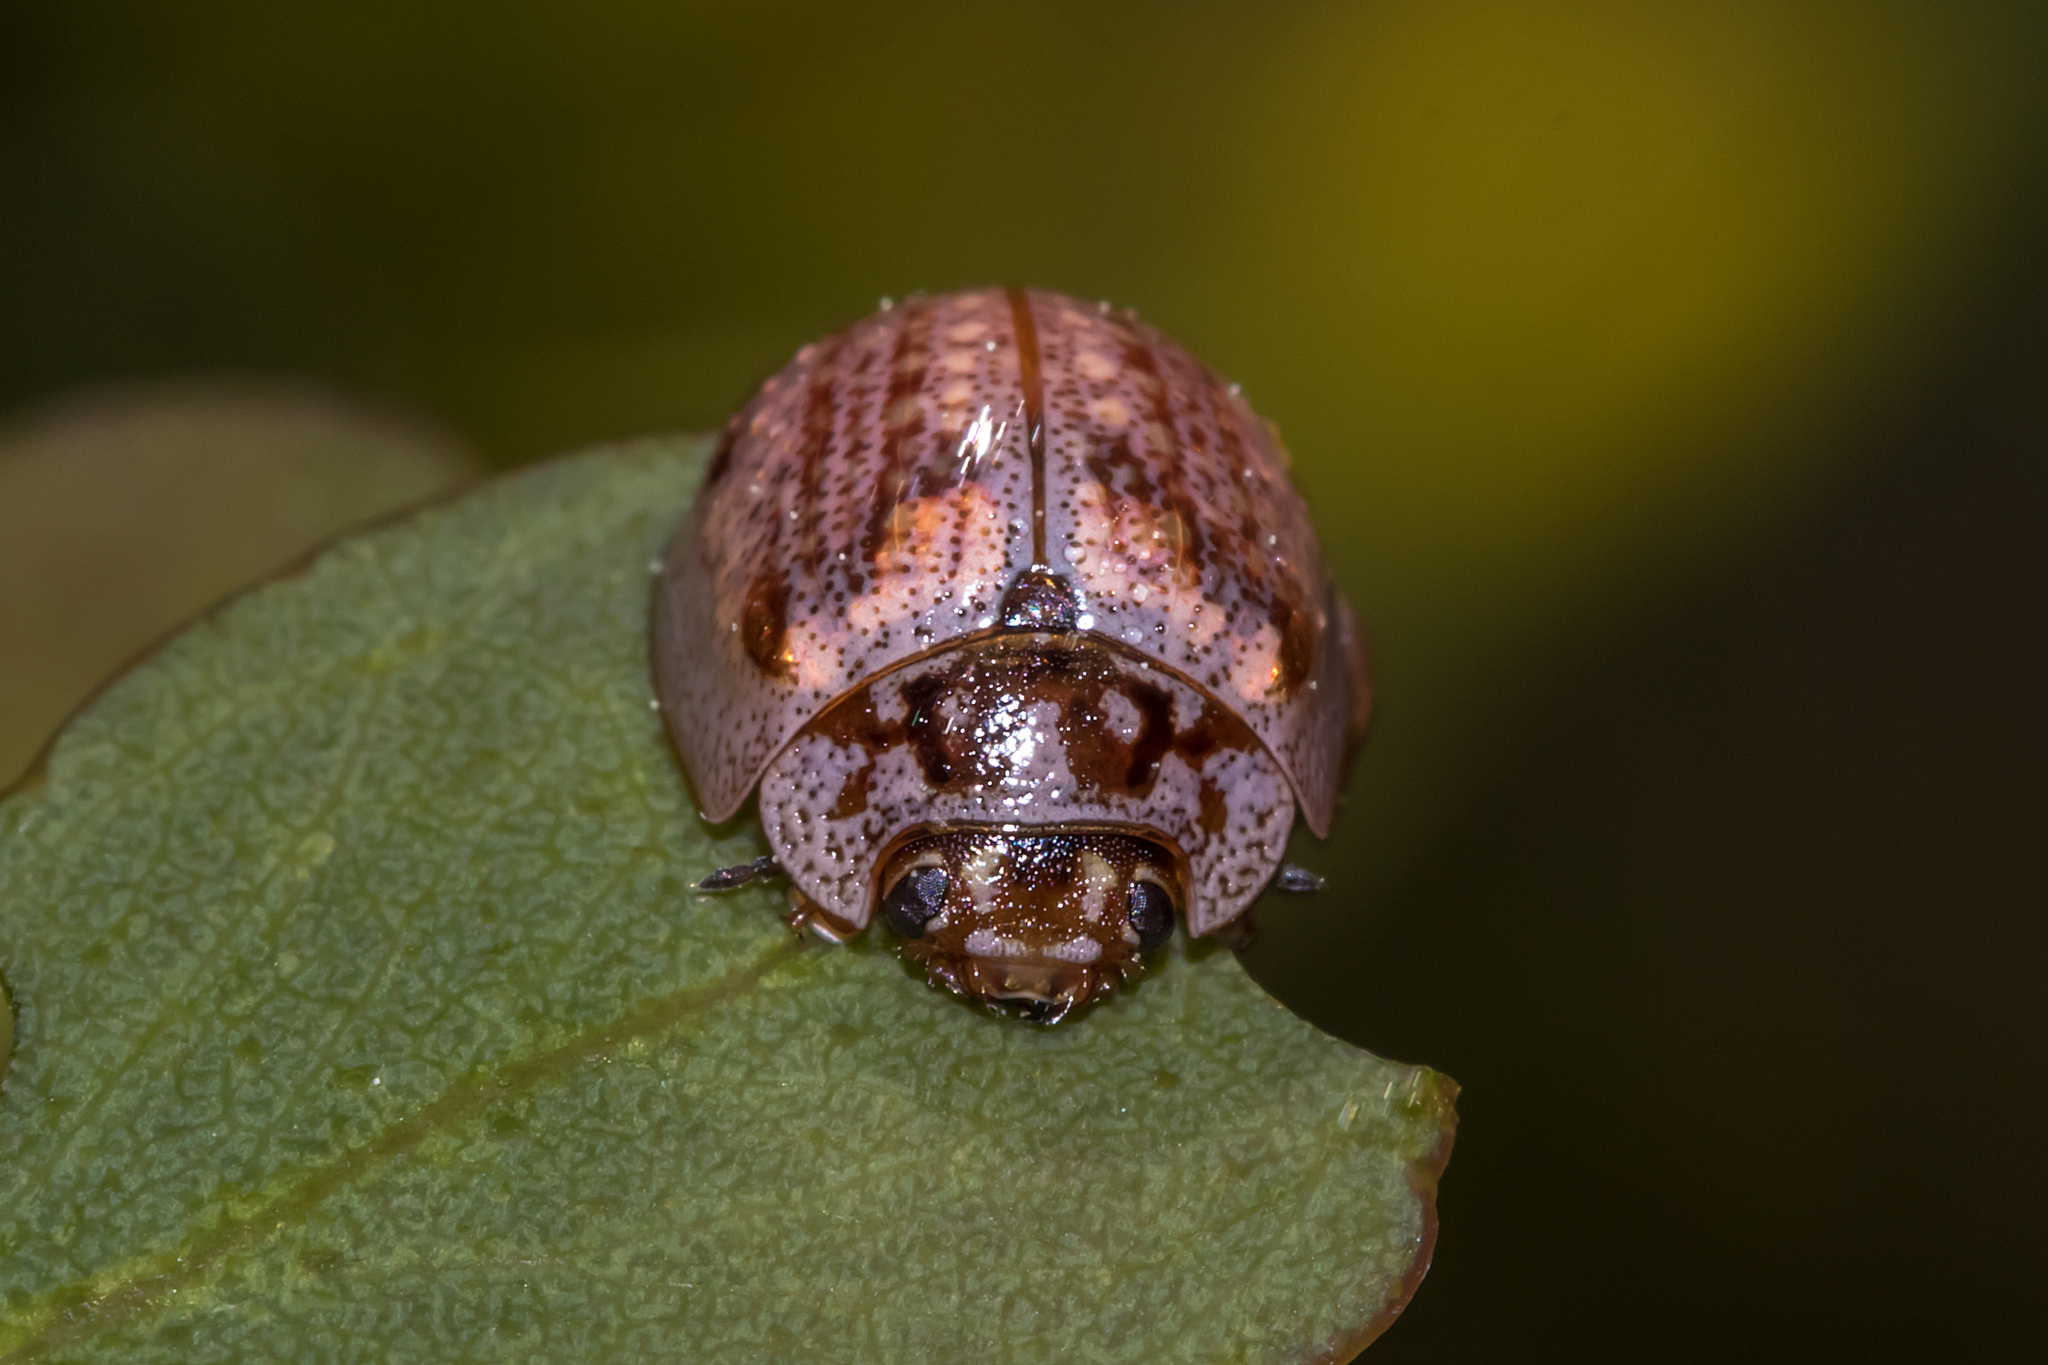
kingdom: Animalia
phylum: Arthropoda
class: Insecta
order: Coleoptera
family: Chrysomelidae
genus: Paropsisterna
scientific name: Paropsisterna m-fuscum
